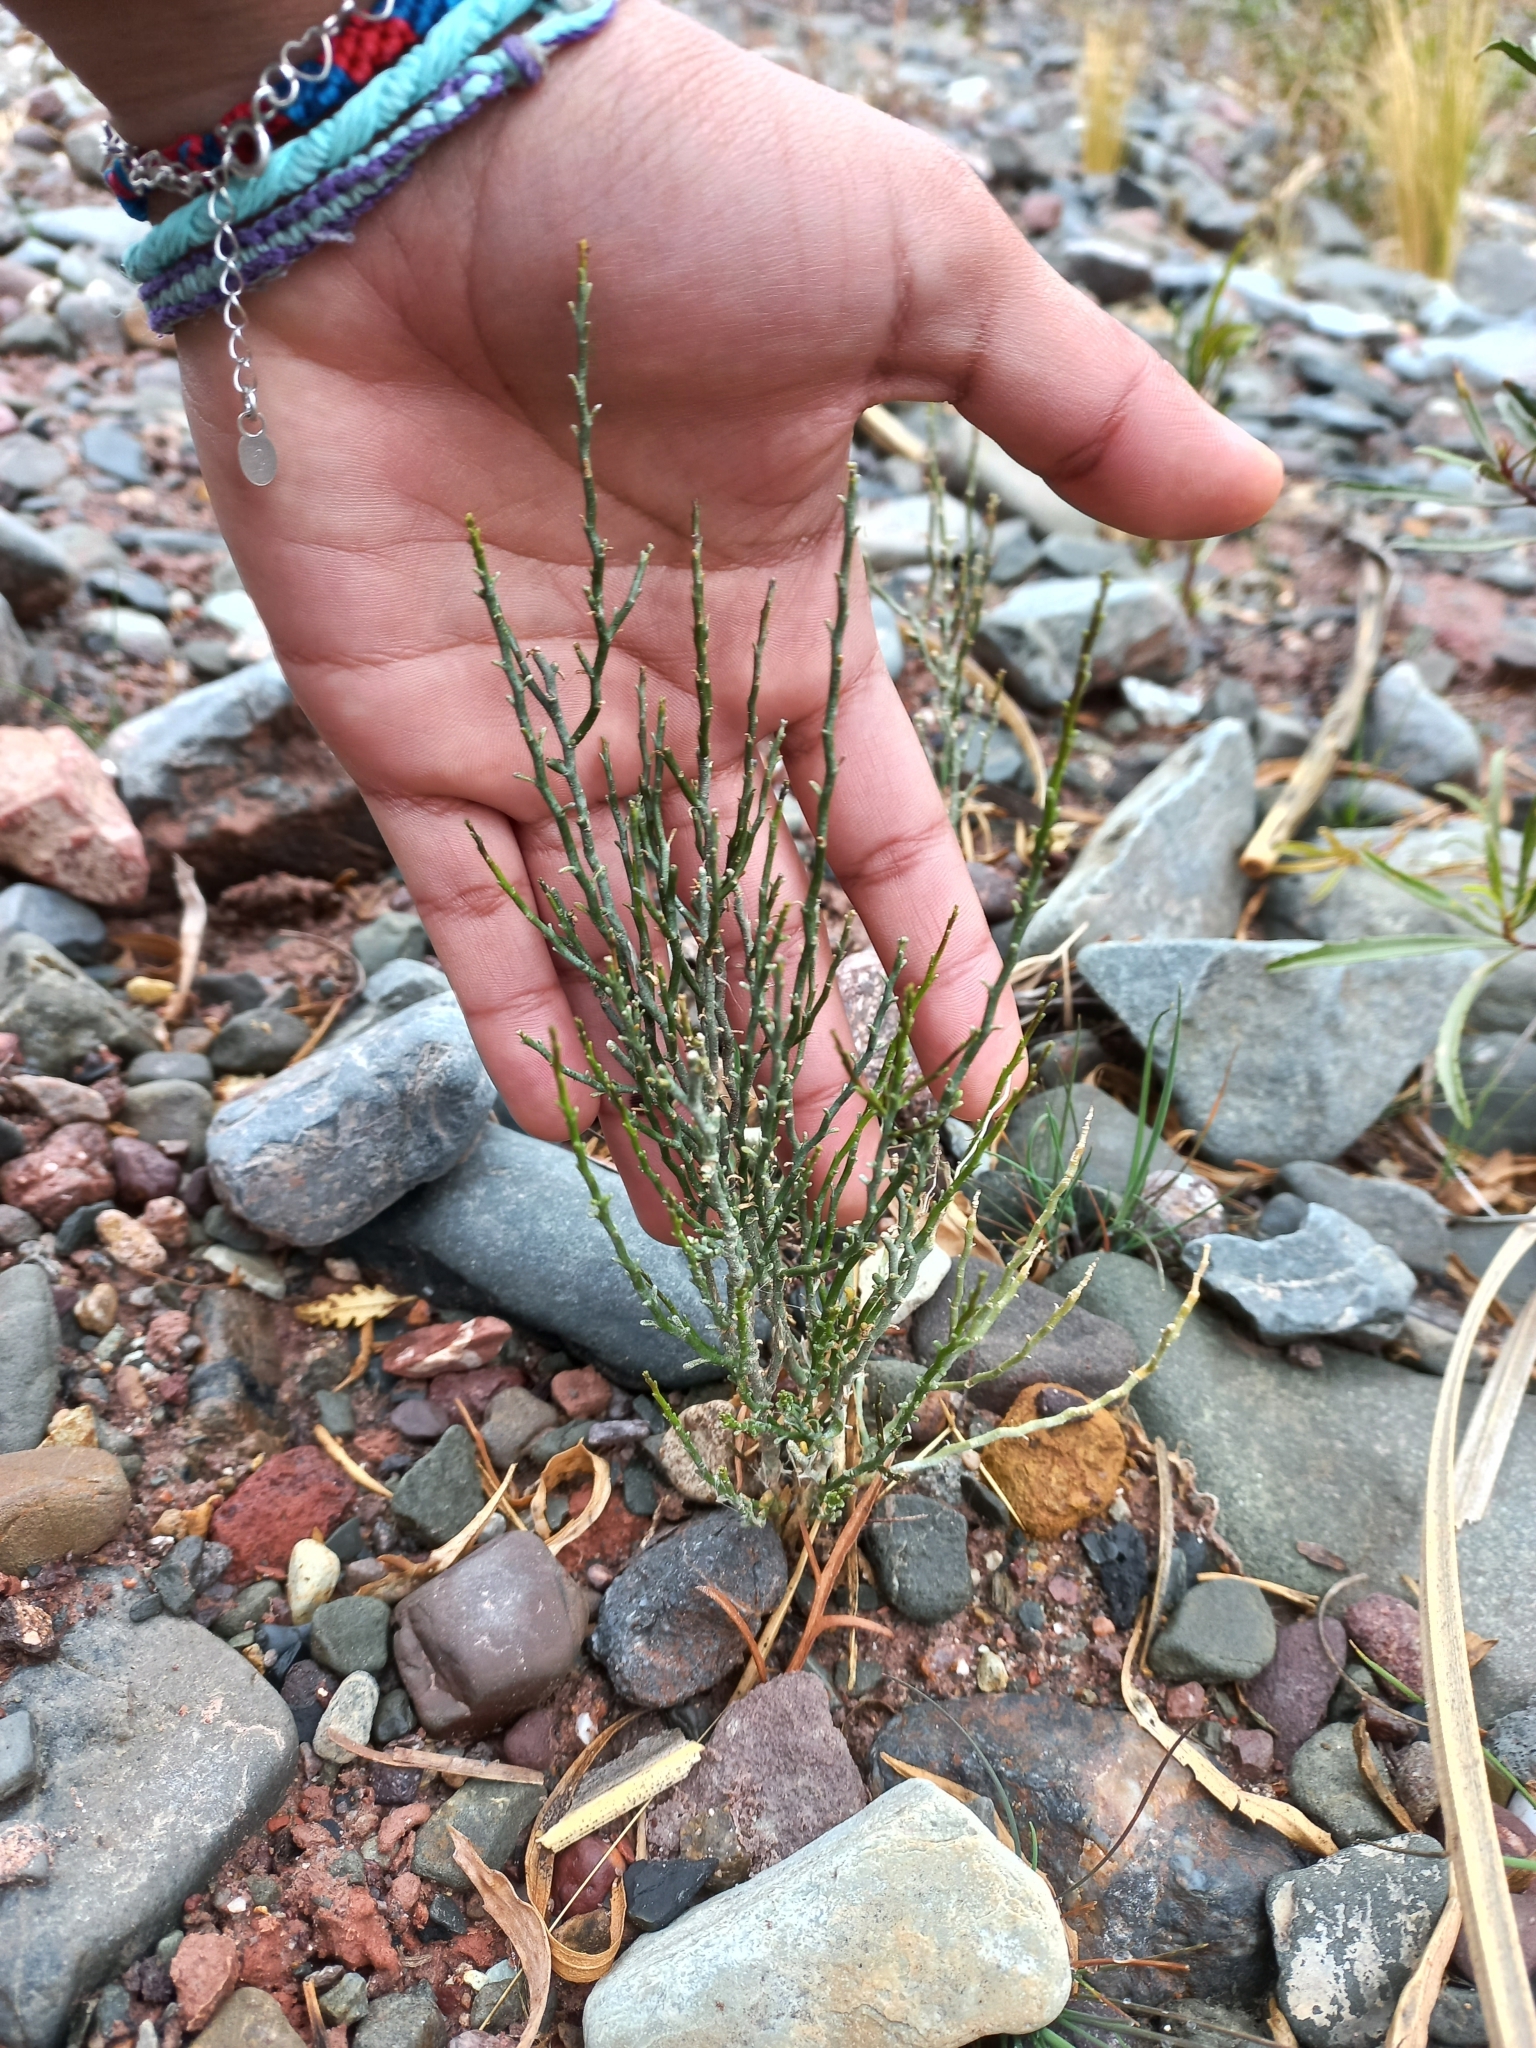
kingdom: Plantae
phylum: Tracheophyta
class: Magnoliopsida
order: Solanales
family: Solanaceae
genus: Fabiana
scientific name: Fabiana denudata
